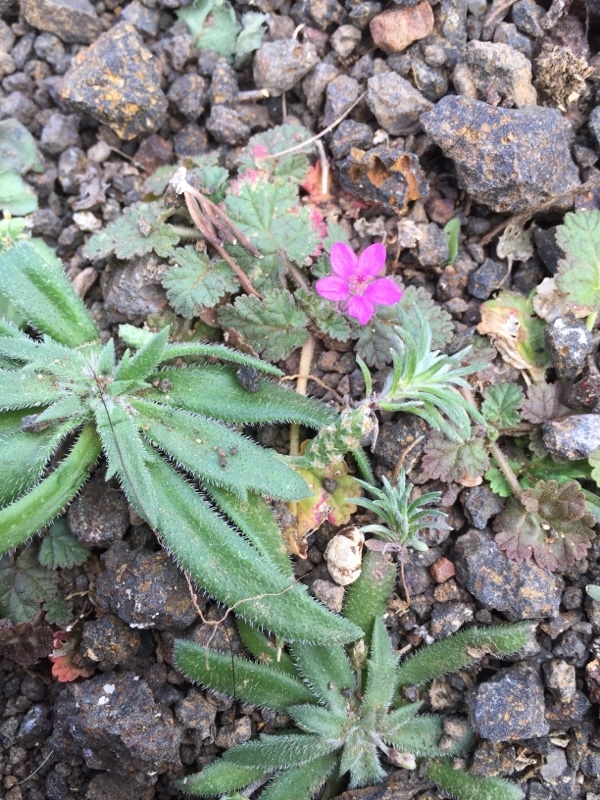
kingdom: Plantae
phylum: Tracheophyta
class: Magnoliopsida
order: Geraniales
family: Geraniaceae
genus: Erodium
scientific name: Erodium malacoides
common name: Soft stork's-bill
